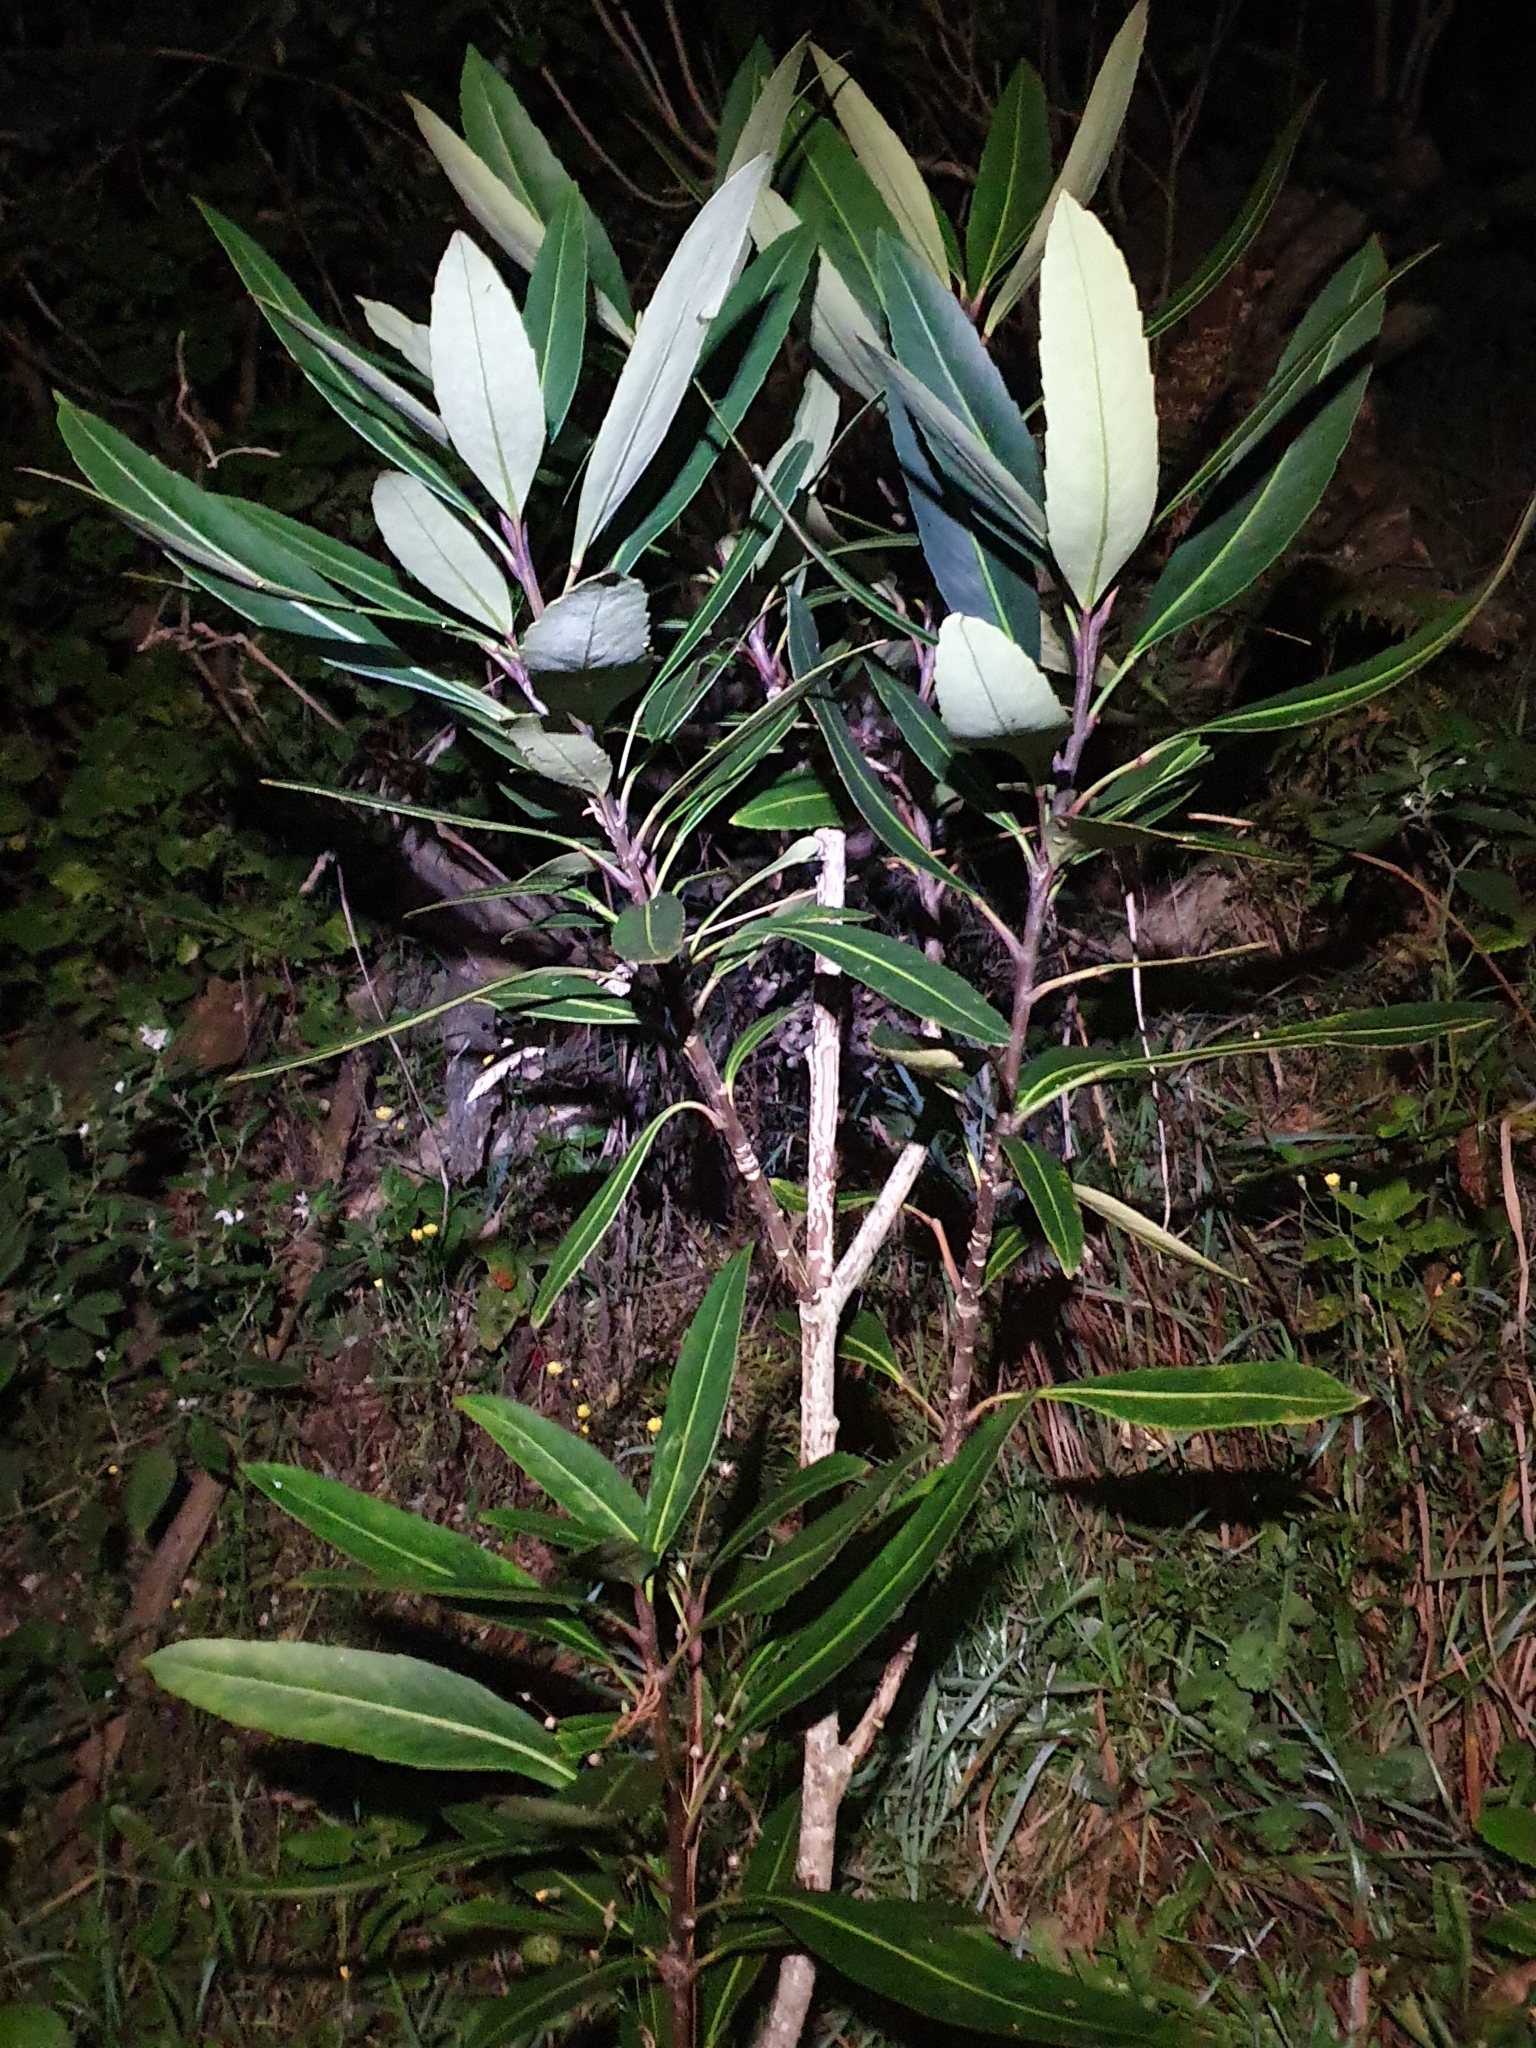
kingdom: Plantae
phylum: Tracheophyta
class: Magnoliopsida
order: Apiales
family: Araliaceae
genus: Pseudopanax
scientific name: Pseudopanax
